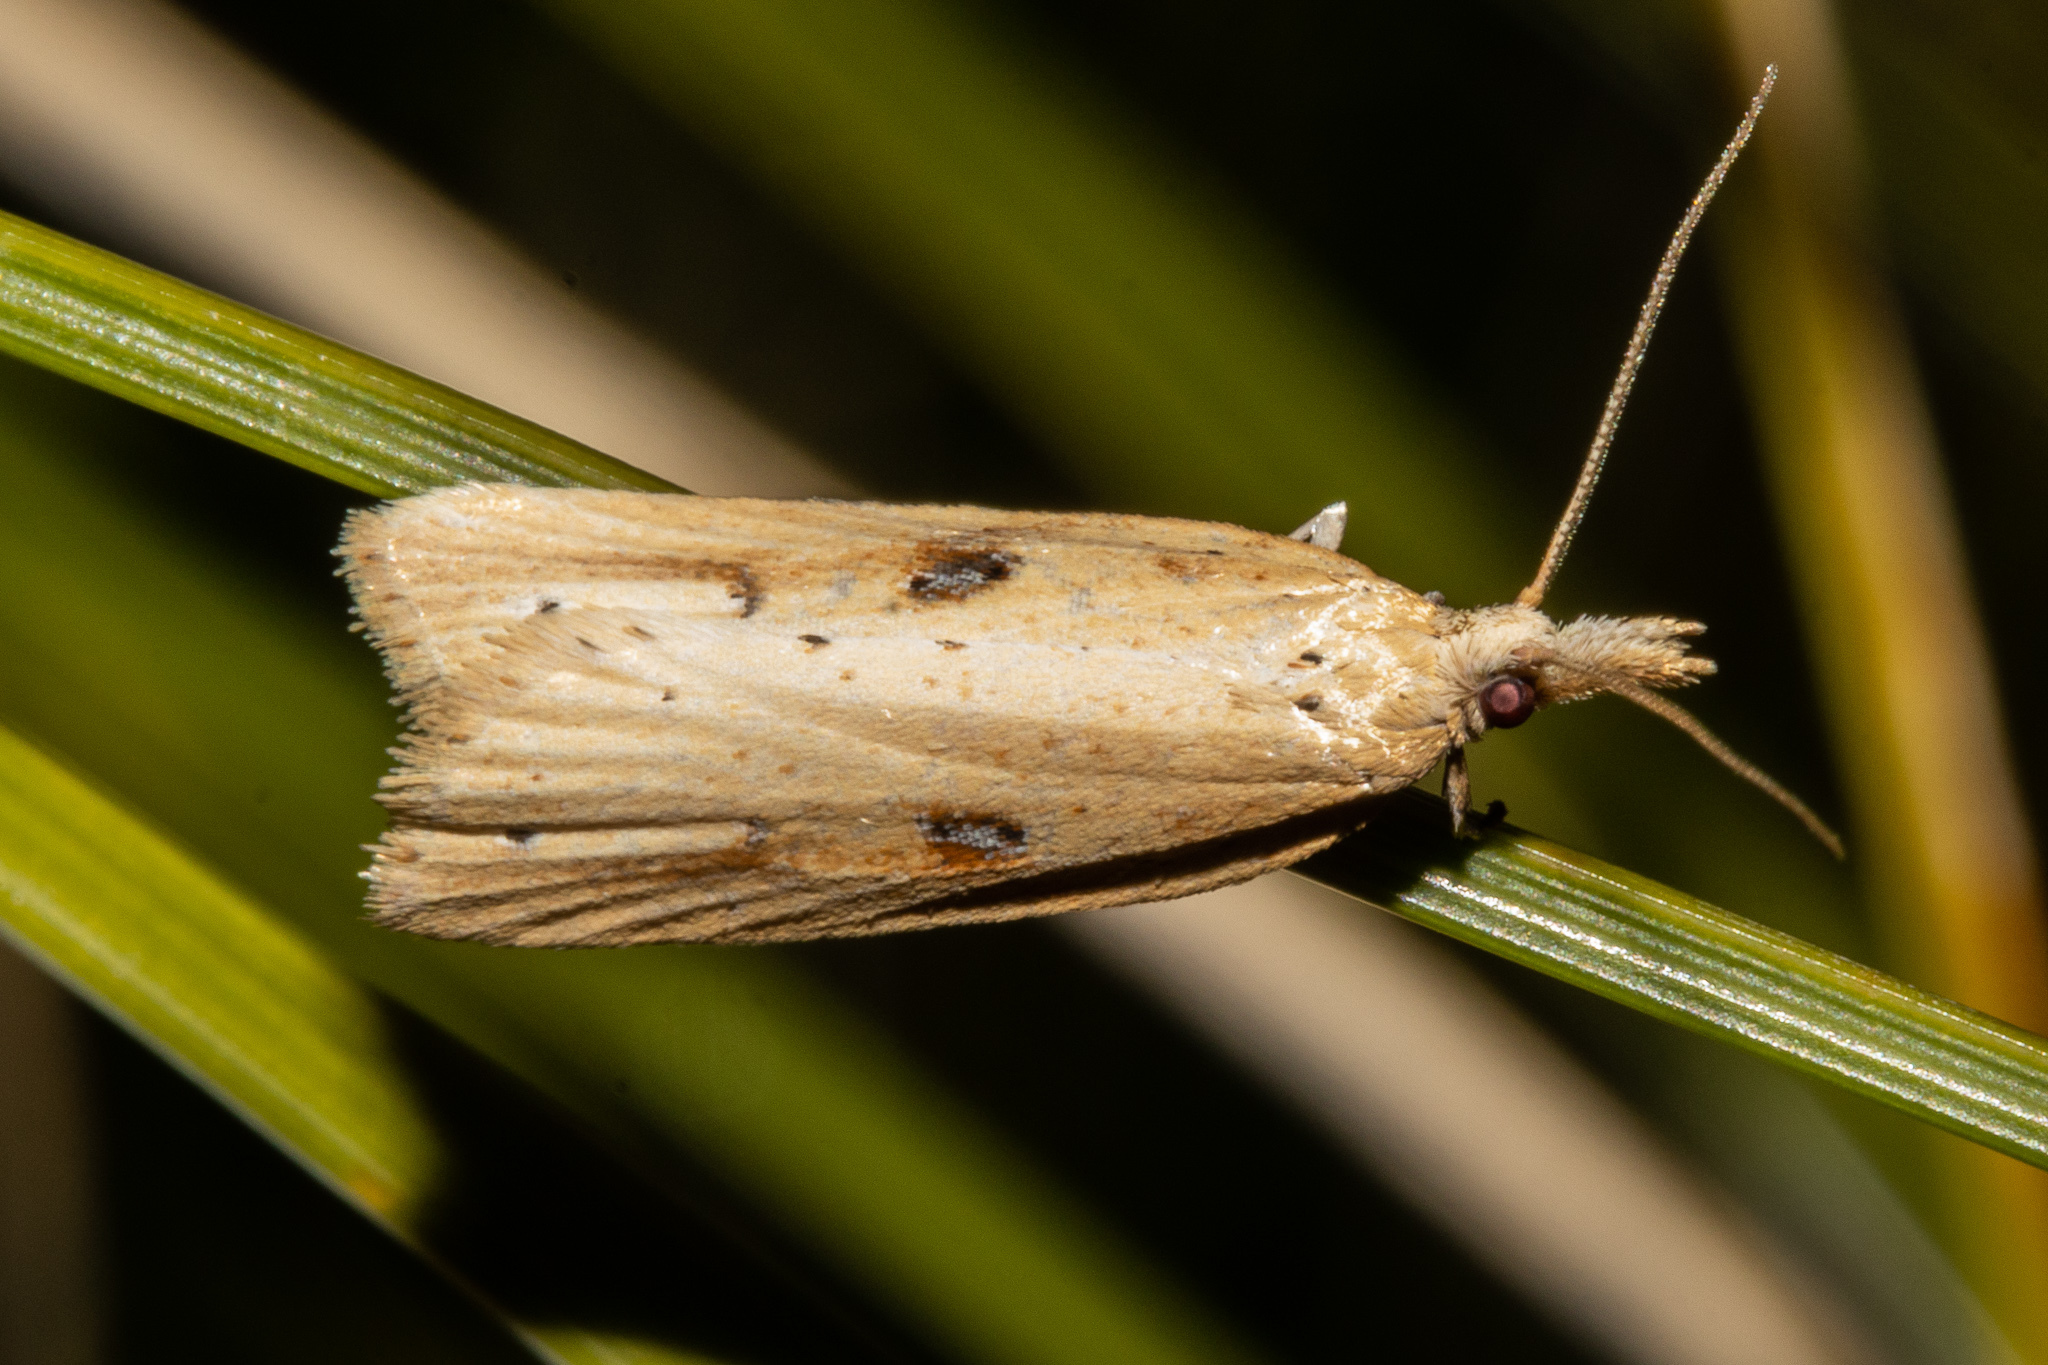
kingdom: Animalia
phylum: Arthropoda
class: Insecta
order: Lepidoptera
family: Tortricidae
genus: Apoctena
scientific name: Apoctena persecta
